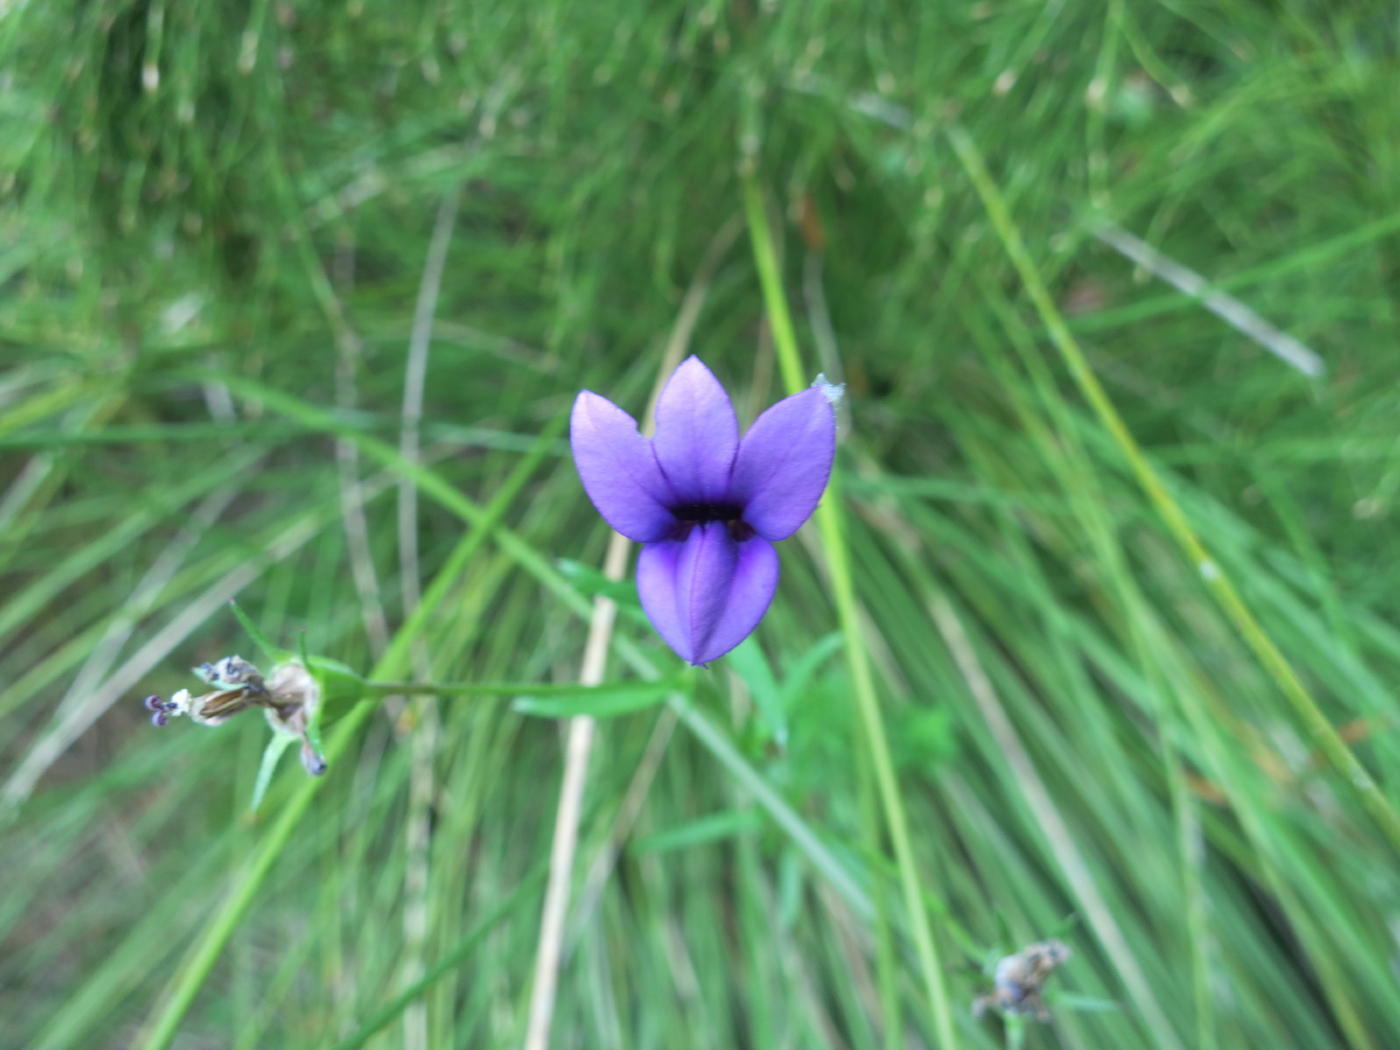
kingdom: Plantae
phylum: Tracheophyta
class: Magnoliopsida
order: Asterales
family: Campanulaceae
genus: Monopsis
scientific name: Monopsis unidentata
